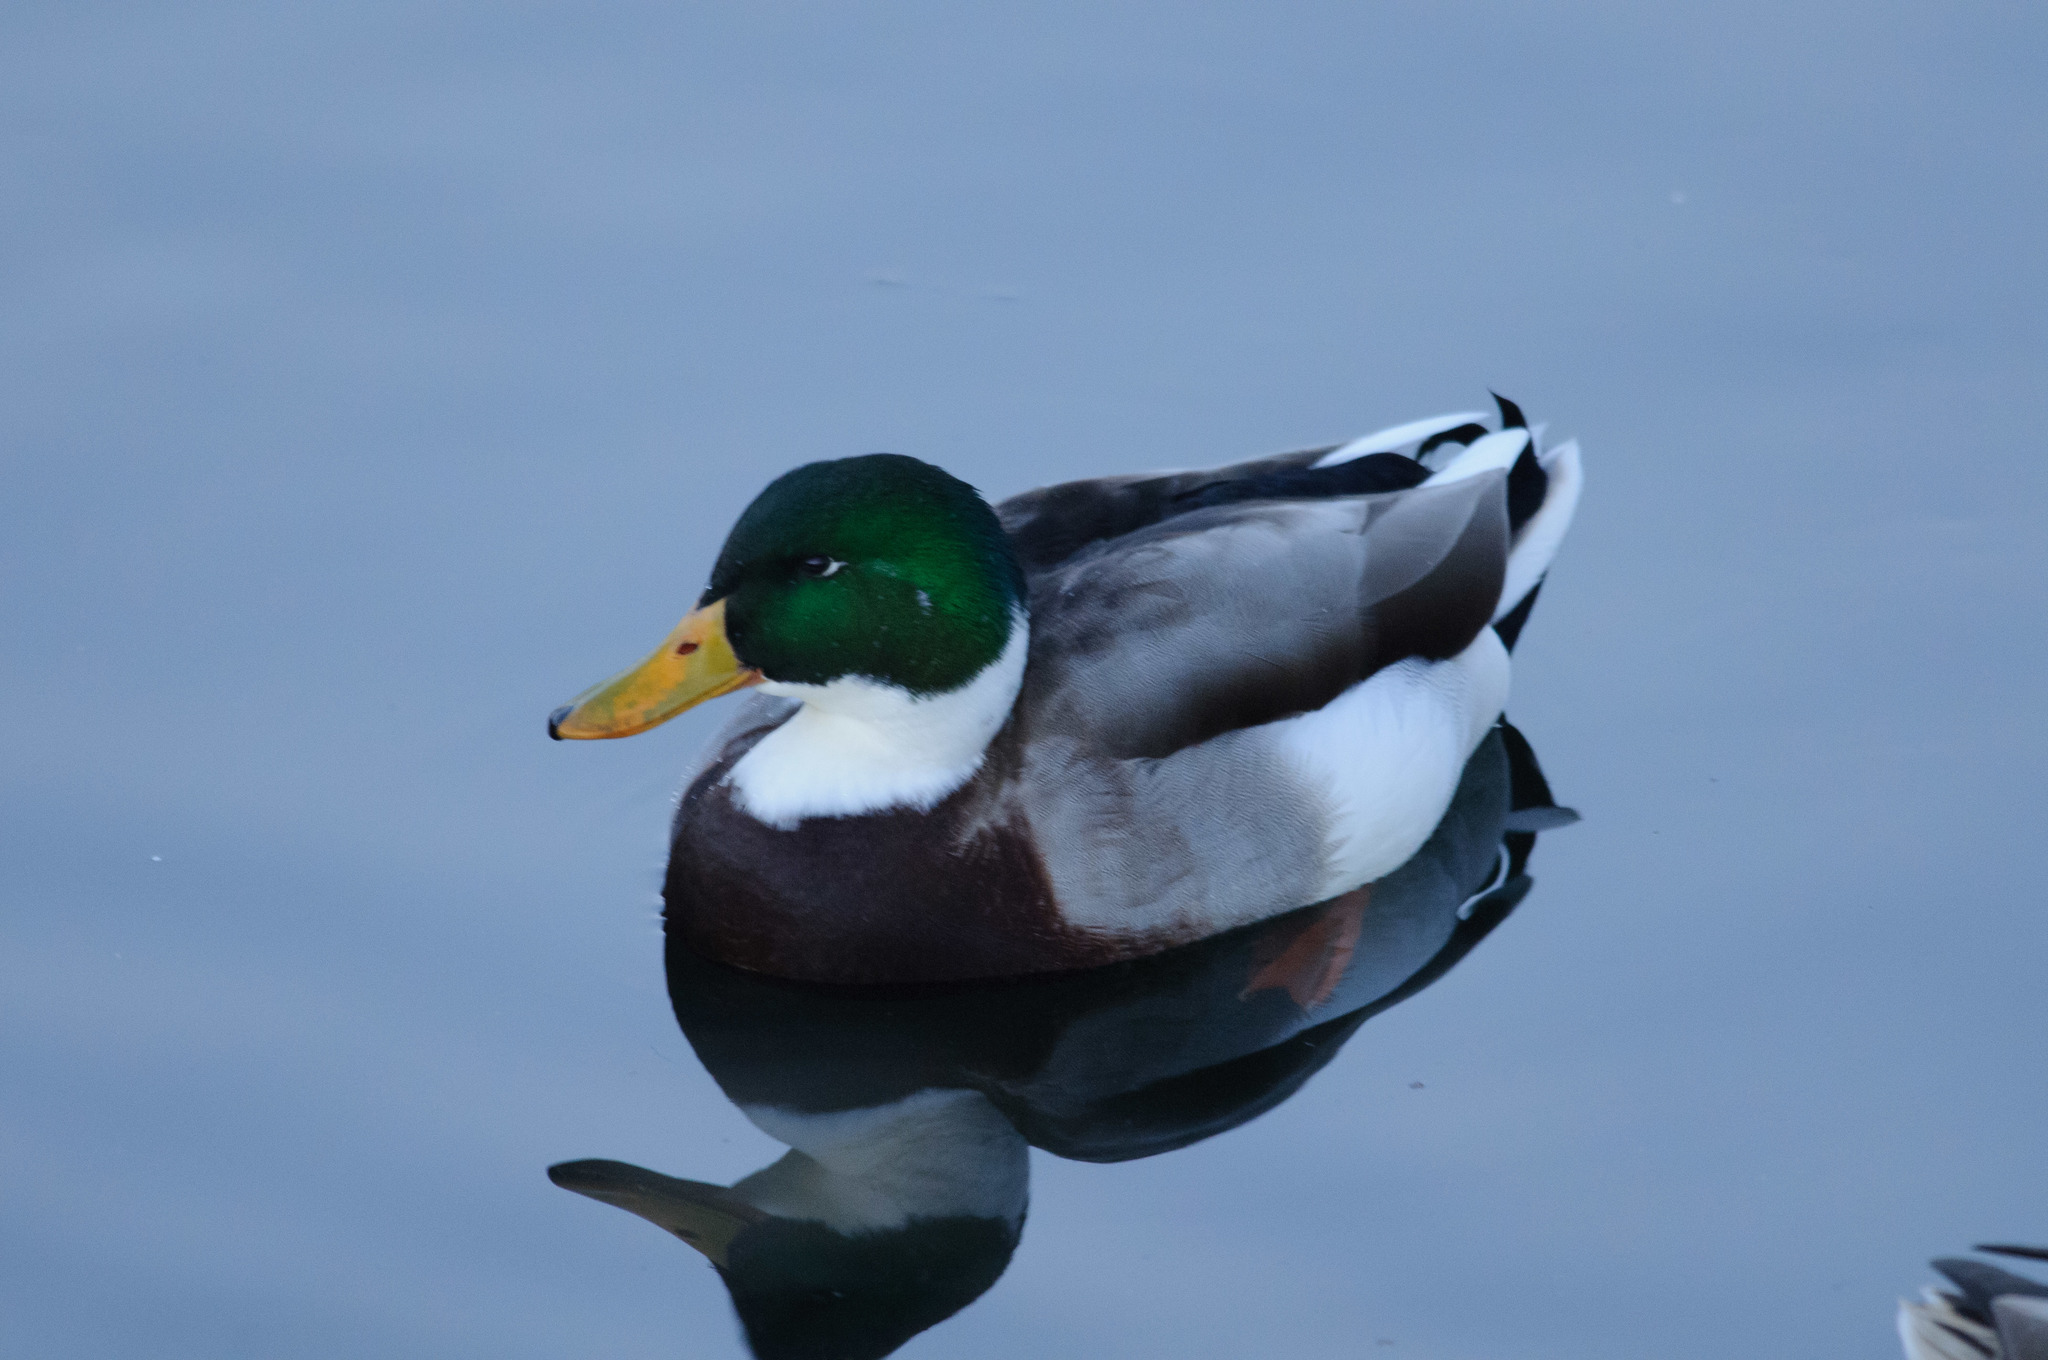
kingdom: Animalia
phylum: Chordata
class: Aves
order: Anseriformes
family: Anatidae
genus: Anas
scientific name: Anas platyrhynchos
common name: Mallard
